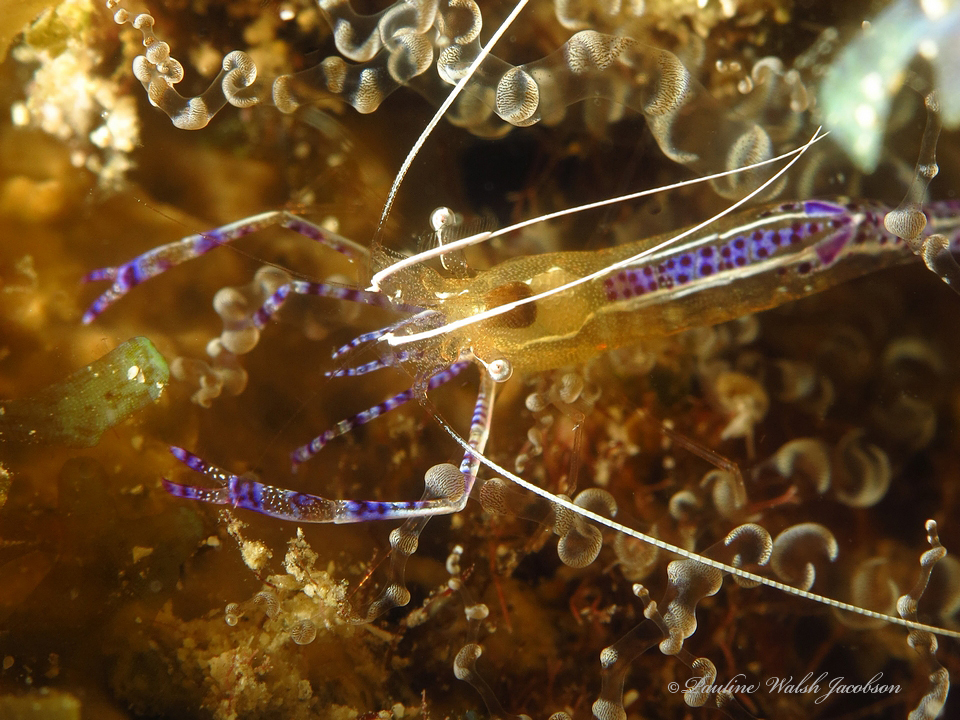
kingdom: Animalia
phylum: Arthropoda
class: Malacostraca
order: Decapoda
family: Palaemonidae
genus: Ancylomenes
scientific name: Ancylomenes pedersoni
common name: Pederson's cleaning shrimp
